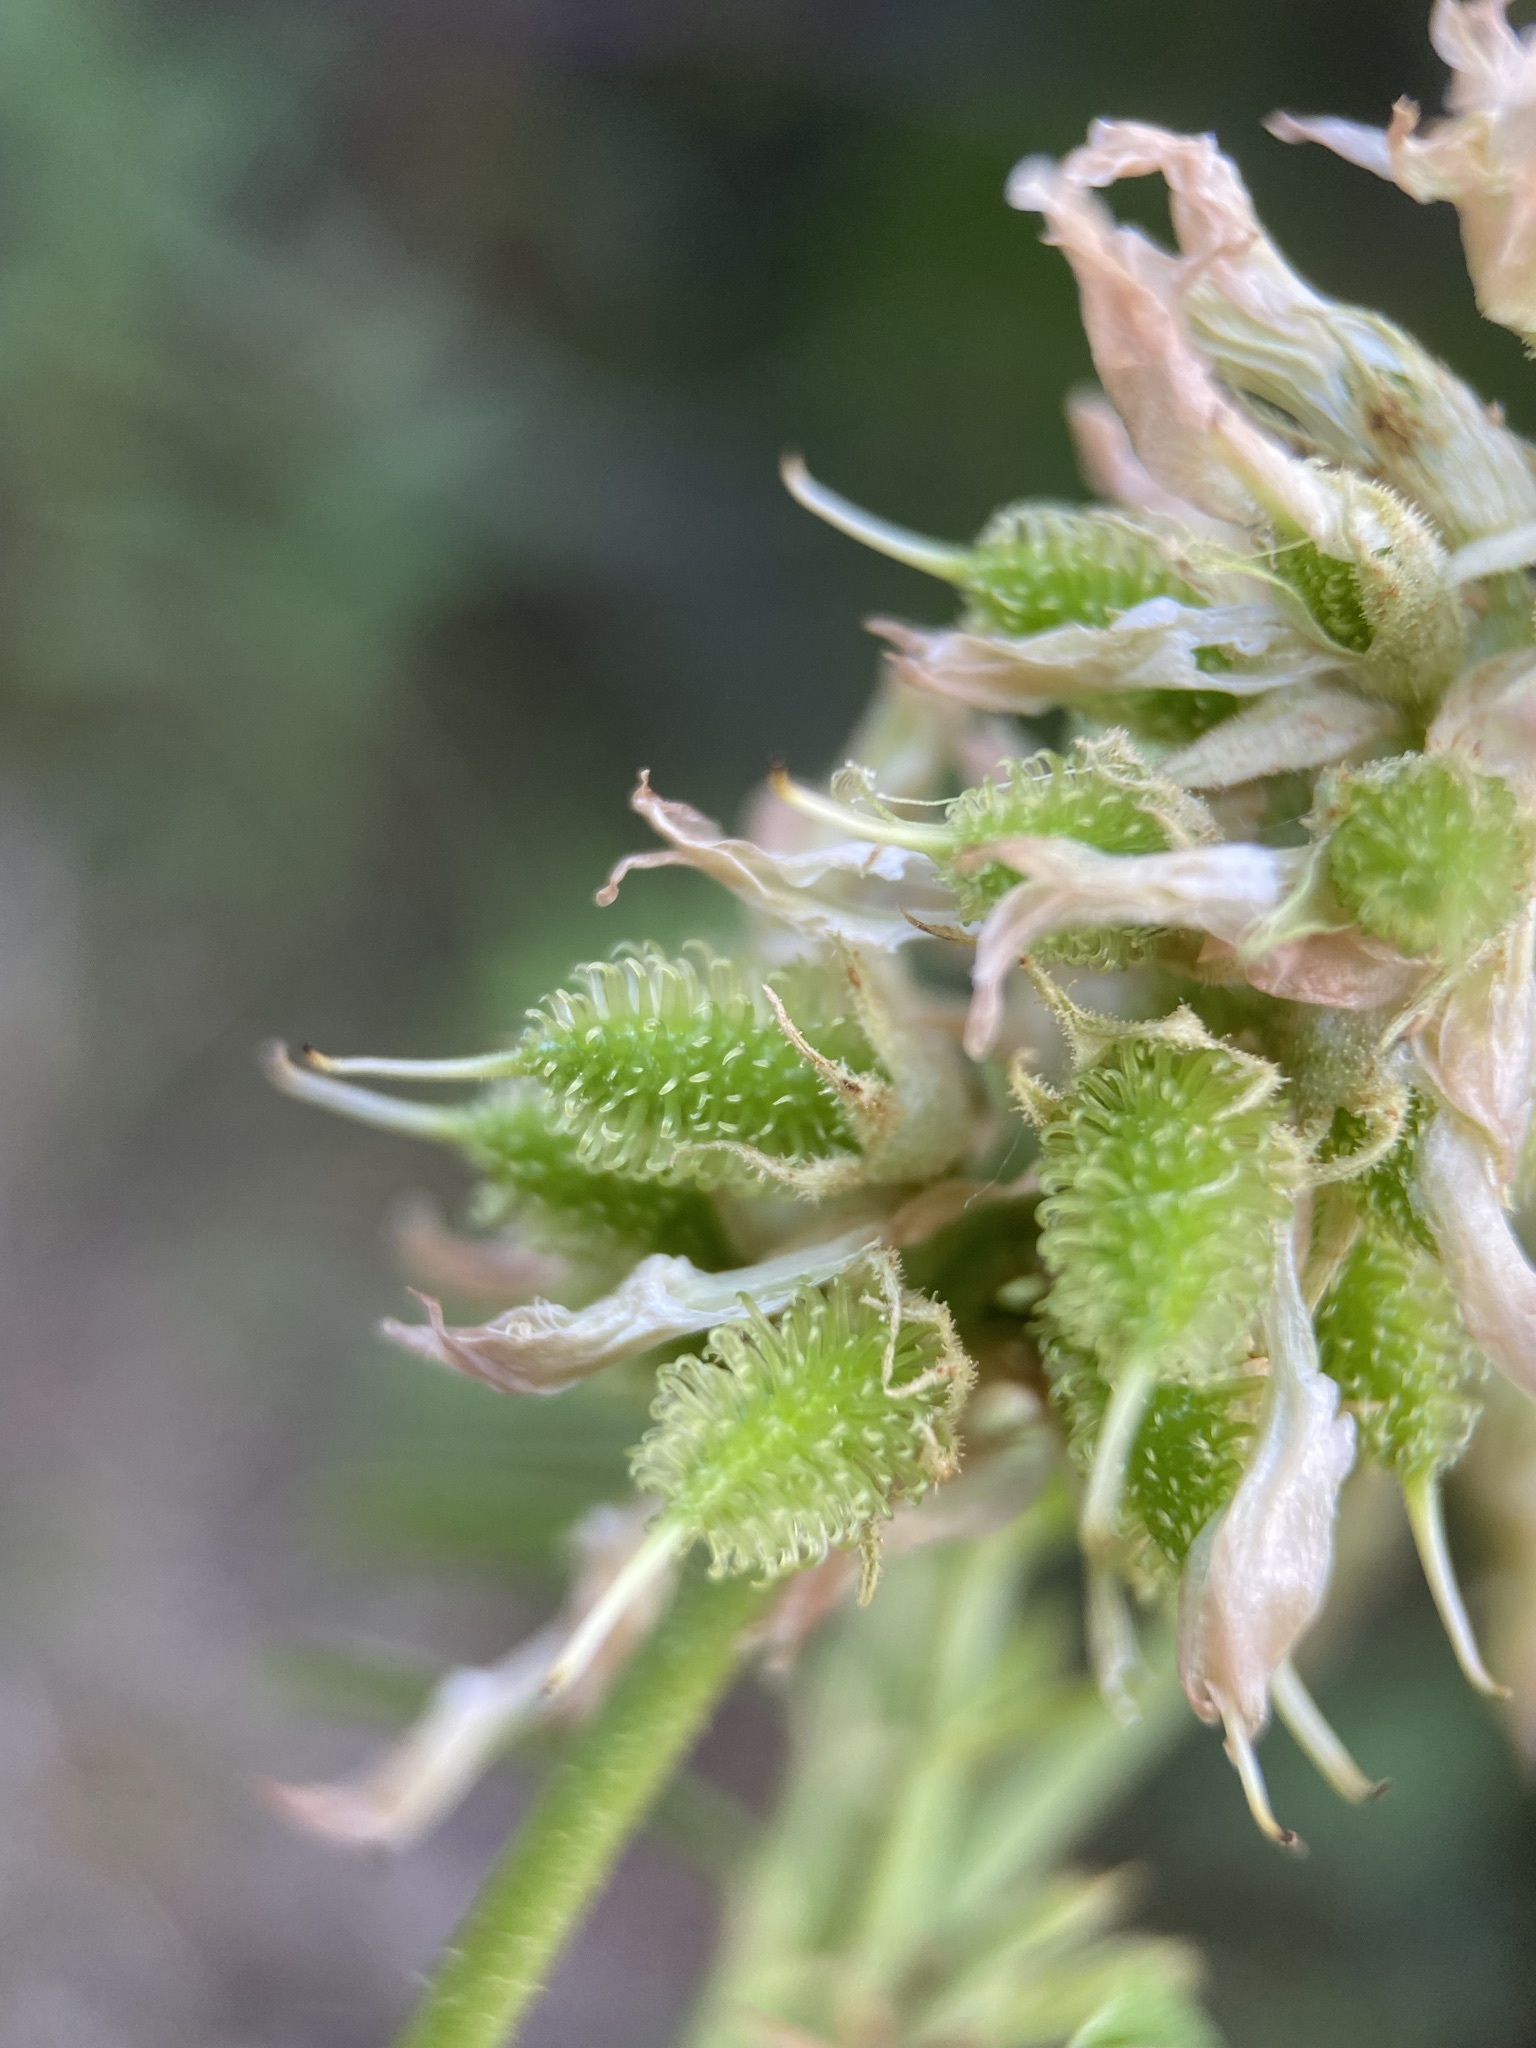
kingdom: Plantae
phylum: Tracheophyta
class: Magnoliopsida
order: Fabales
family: Fabaceae
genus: Glycyrrhiza
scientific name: Glycyrrhiza lepidota
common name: American liquorice
